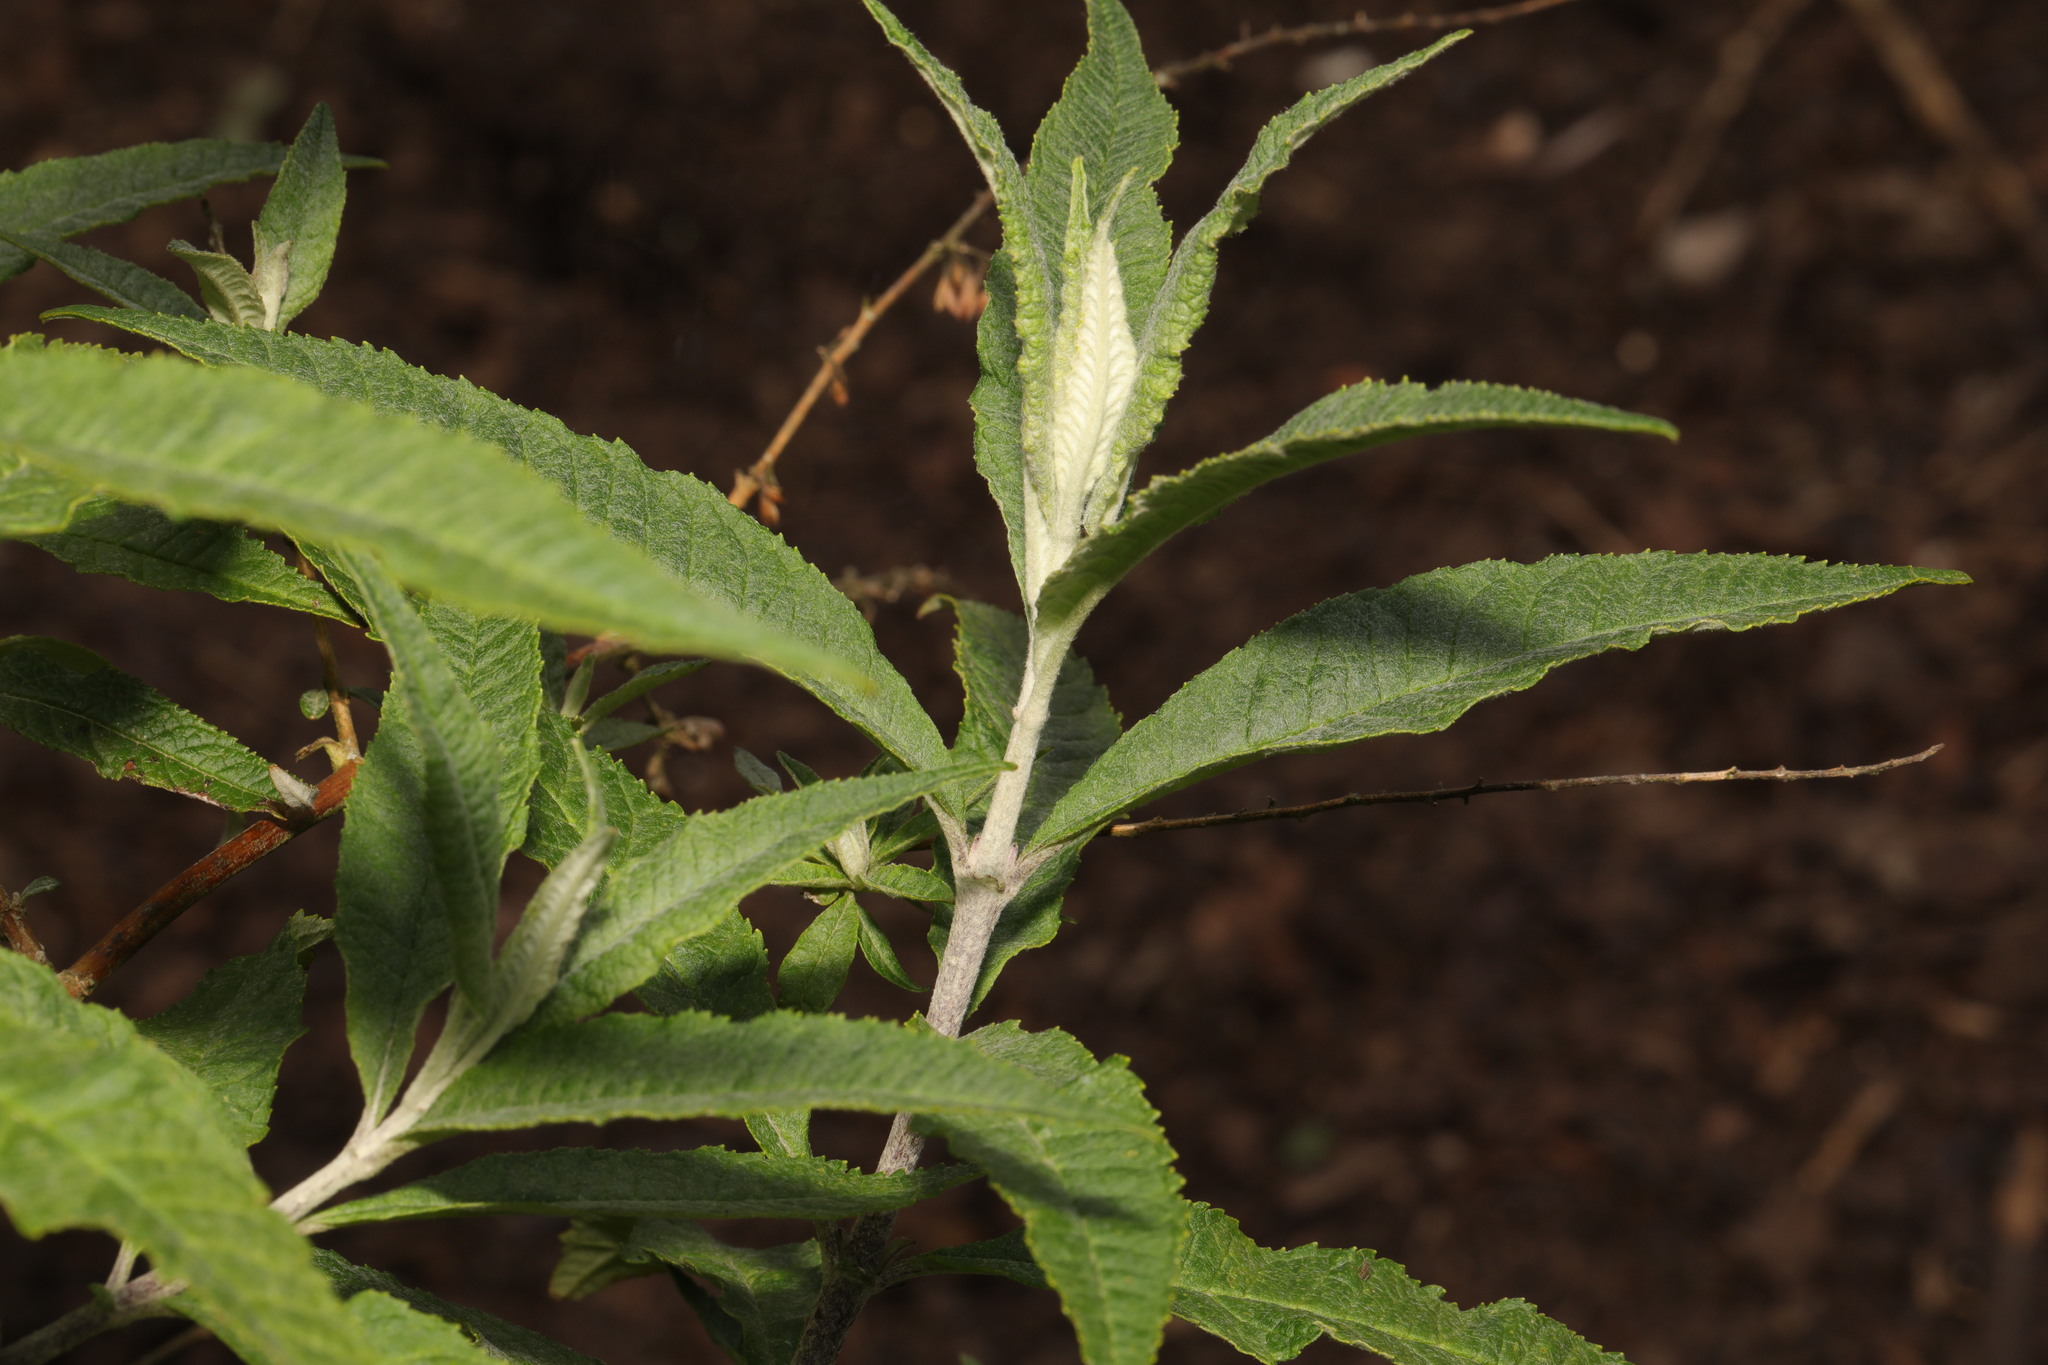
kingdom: Plantae
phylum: Tracheophyta
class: Magnoliopsida
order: Lamiales
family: Scrophulariaceae
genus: Buddleja
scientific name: Buddleja davidii
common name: Butterfly-bush
